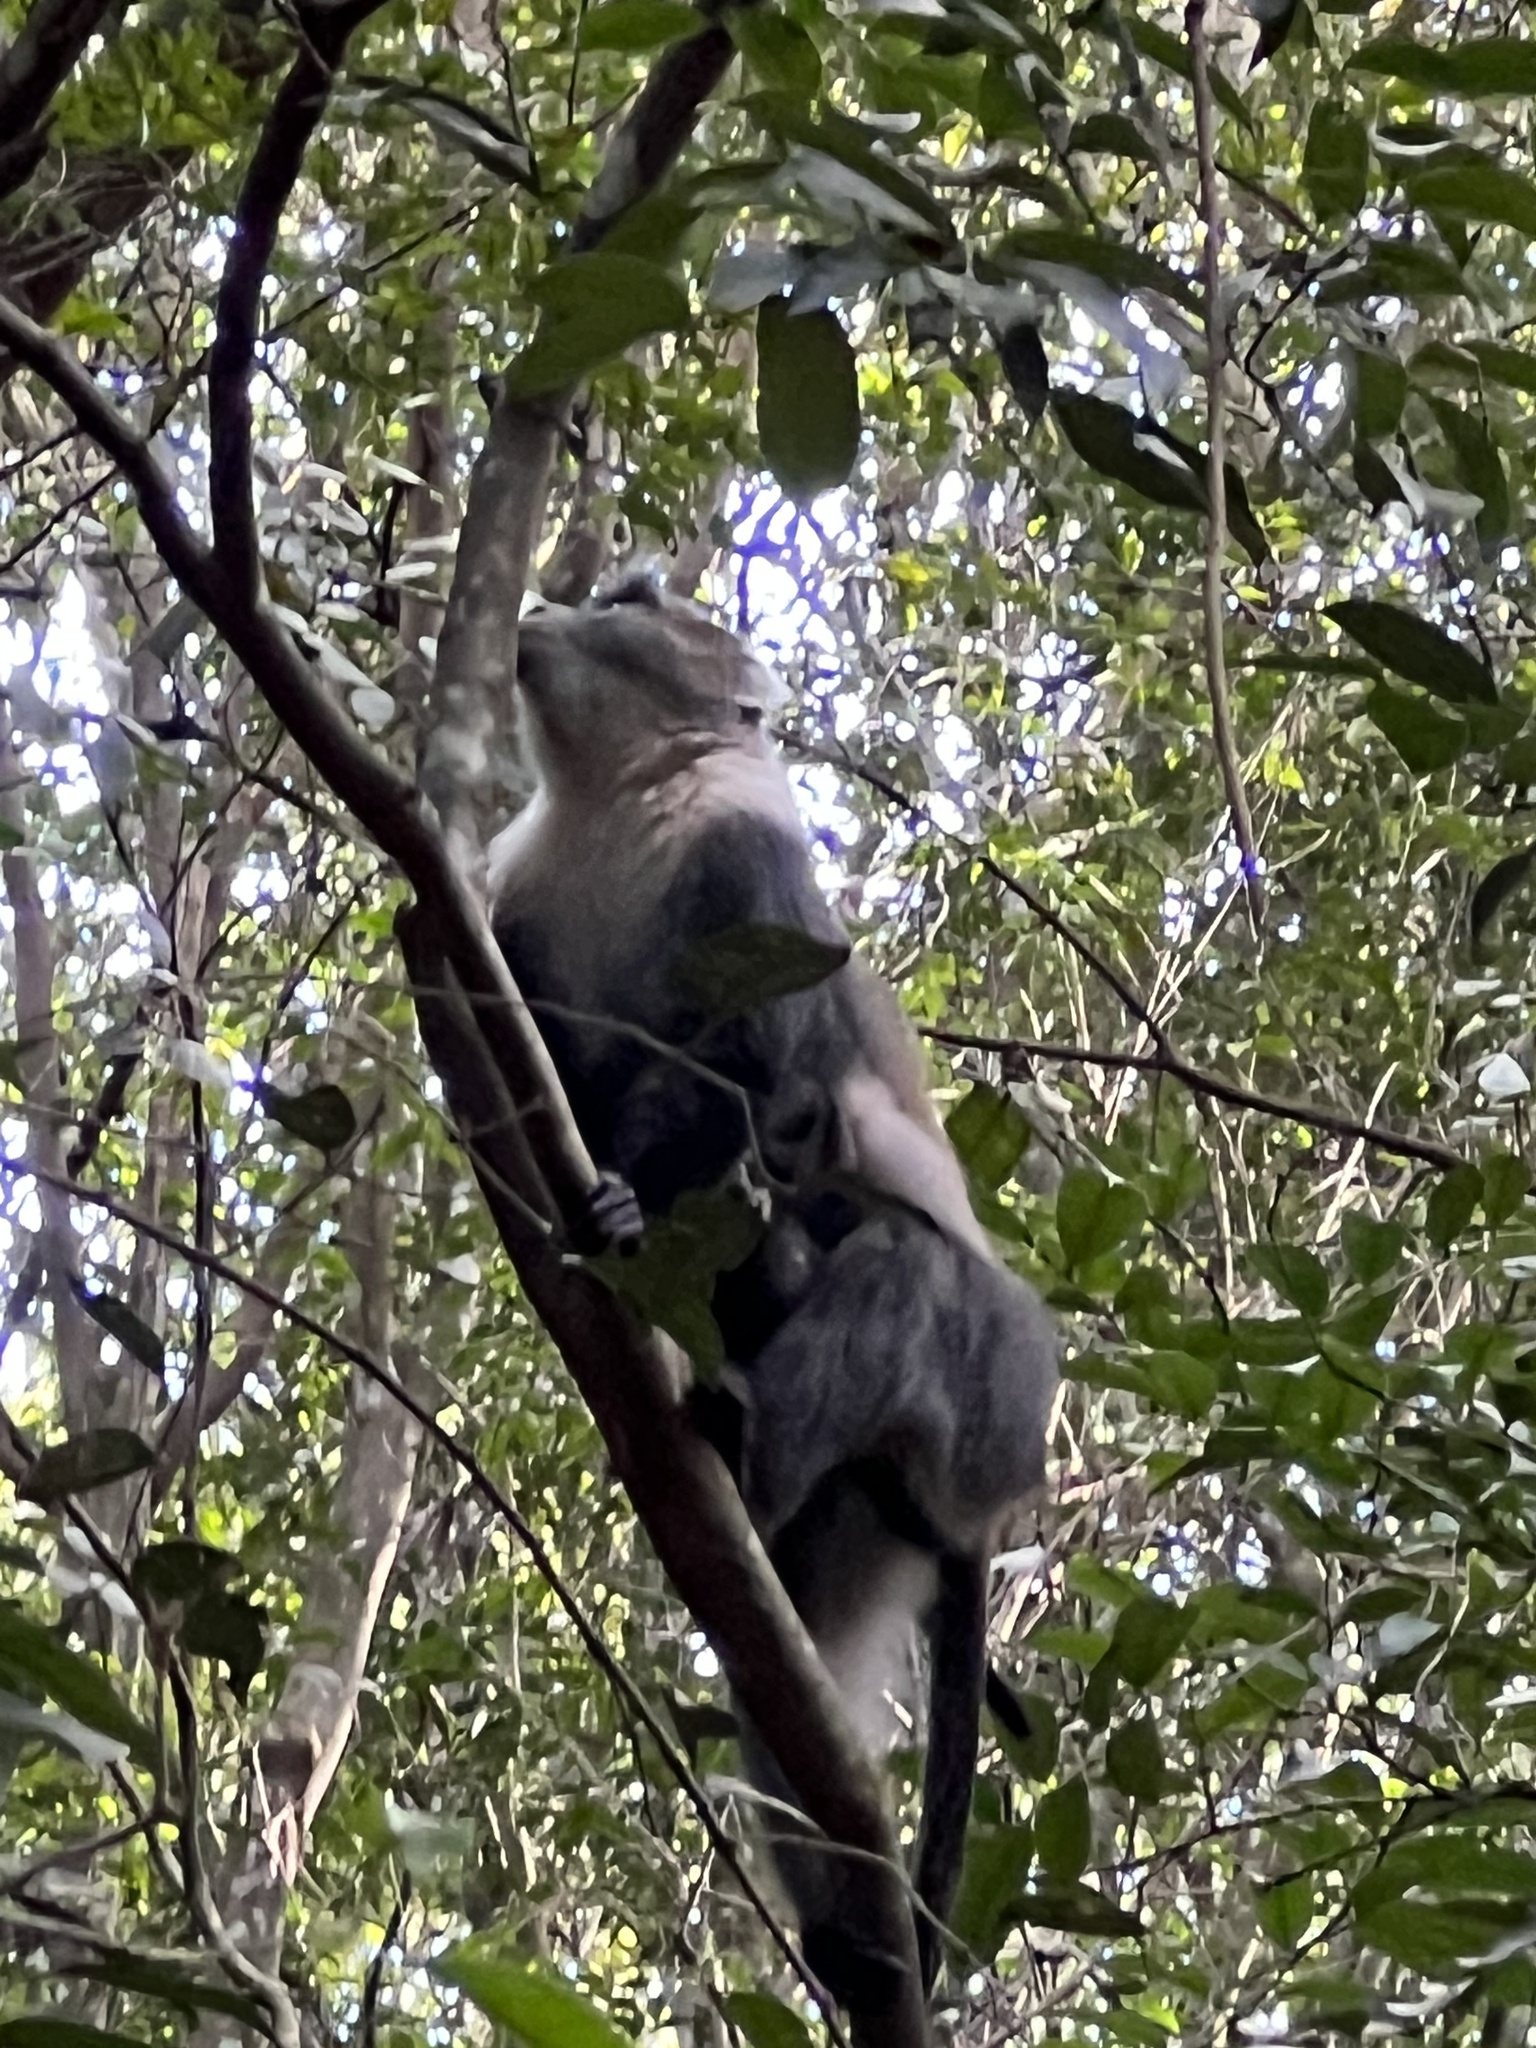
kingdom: Animalia
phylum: Chordata
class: Mammalia
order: Primates
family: Cercopithecidae
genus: Cercopithecus
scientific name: Cercopithecus mitis
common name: Blue monkey
